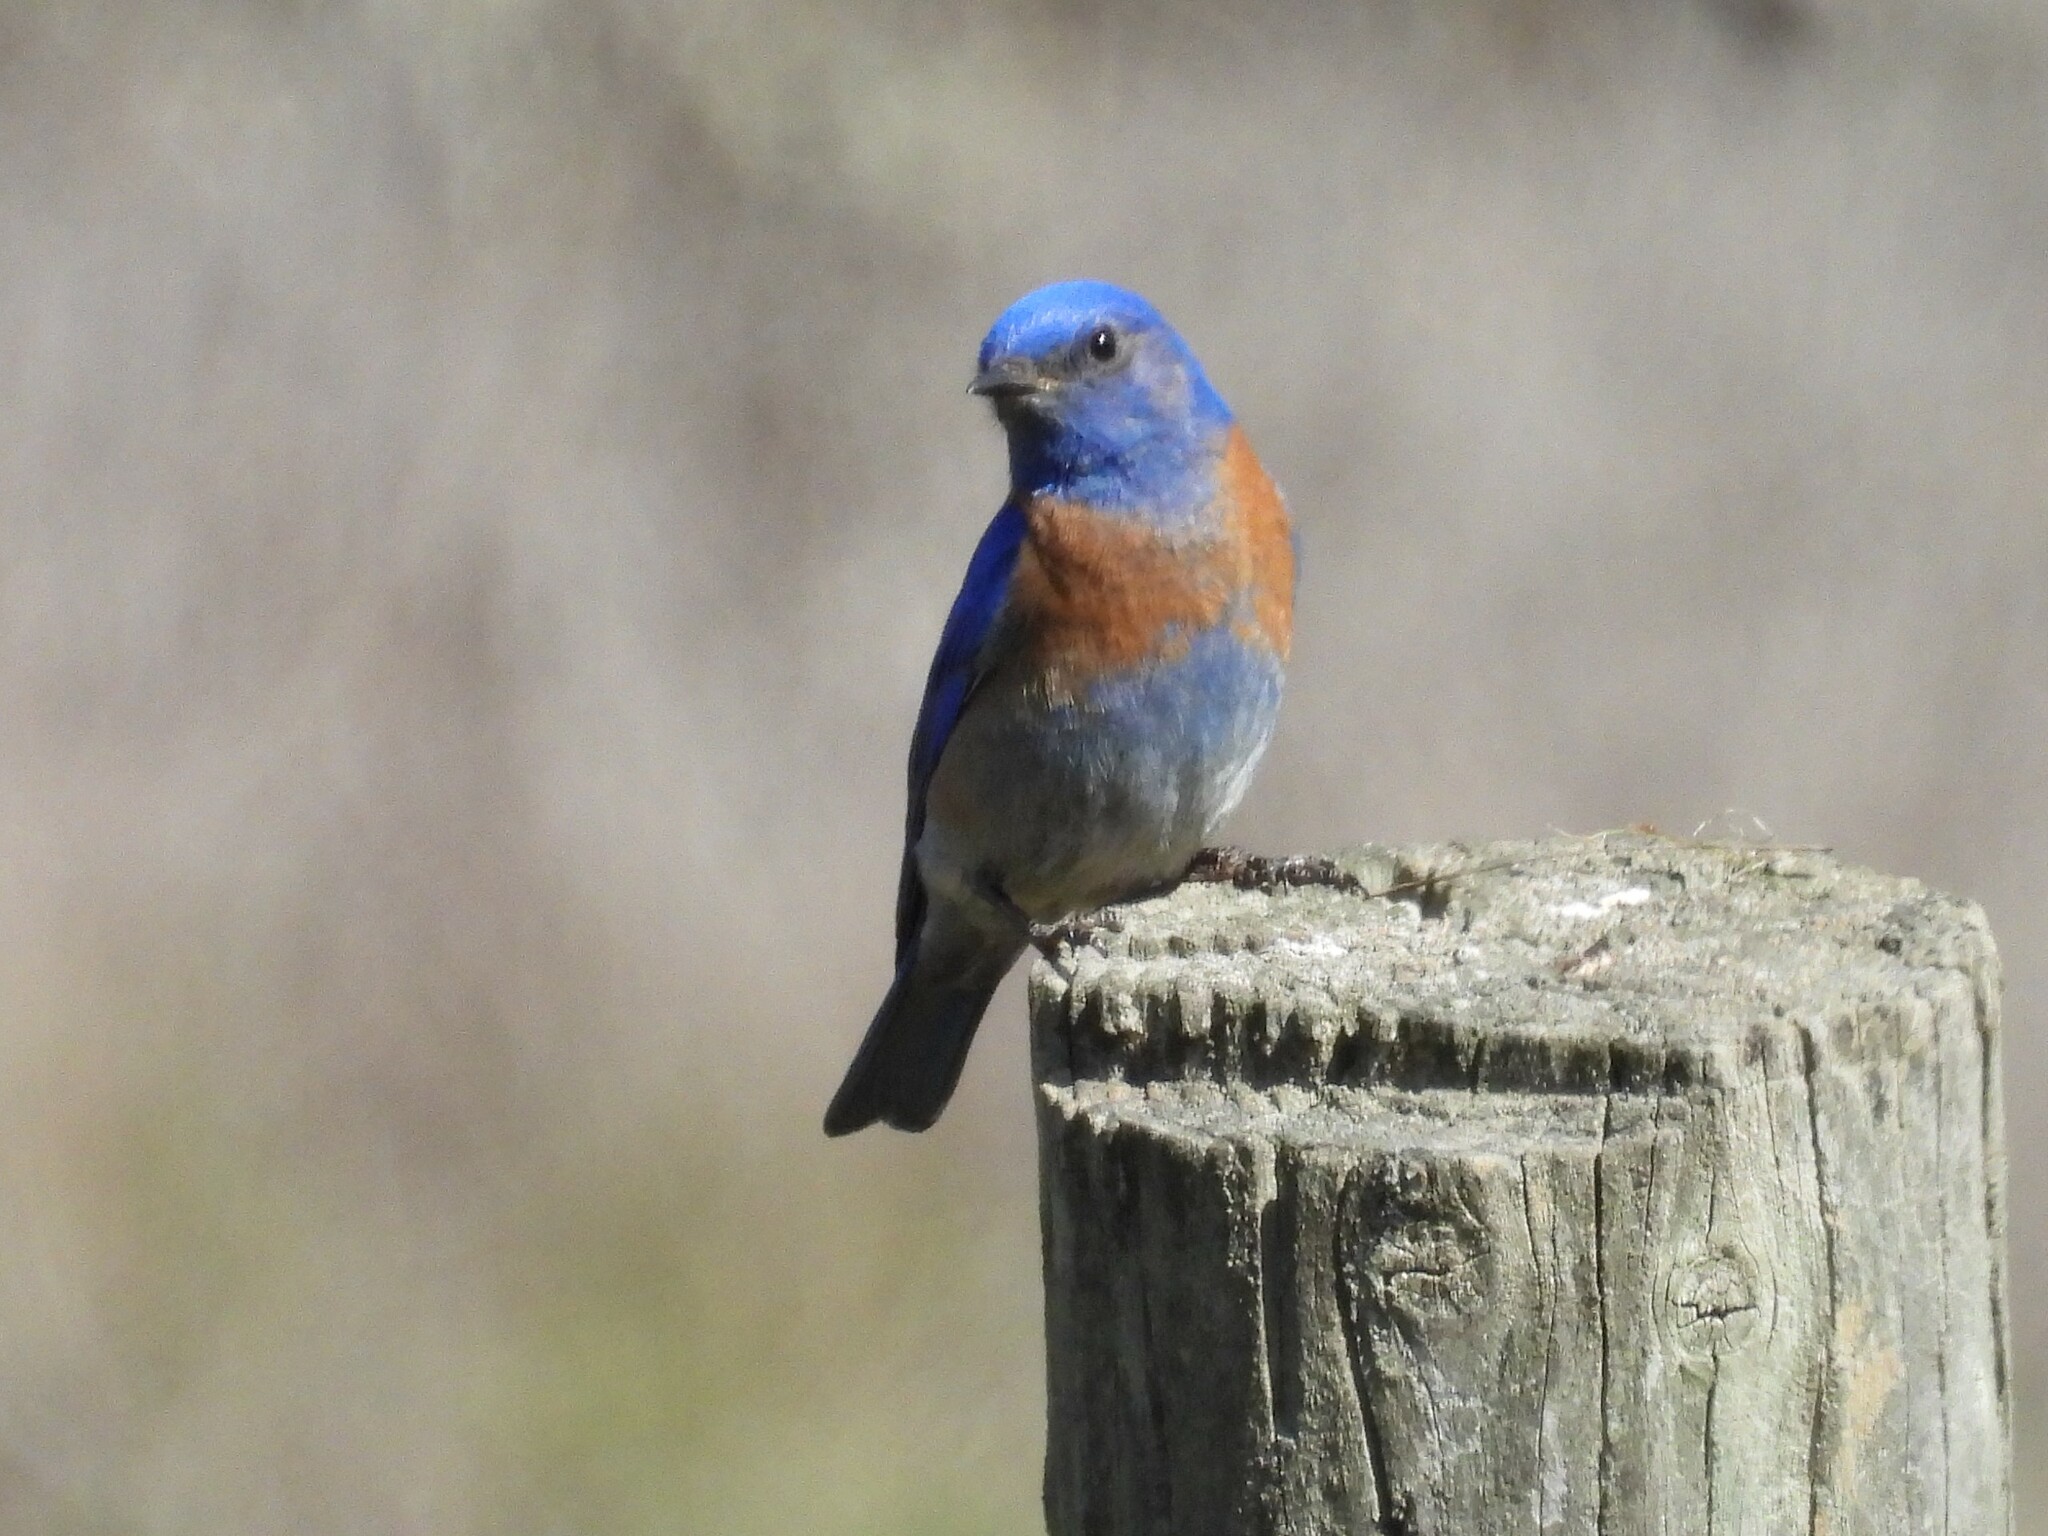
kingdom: Animalia
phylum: Chordata
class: Aves
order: Passeriformes
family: Turdidae
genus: Sialia
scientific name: Sialia mexicana
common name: Western bluebird
